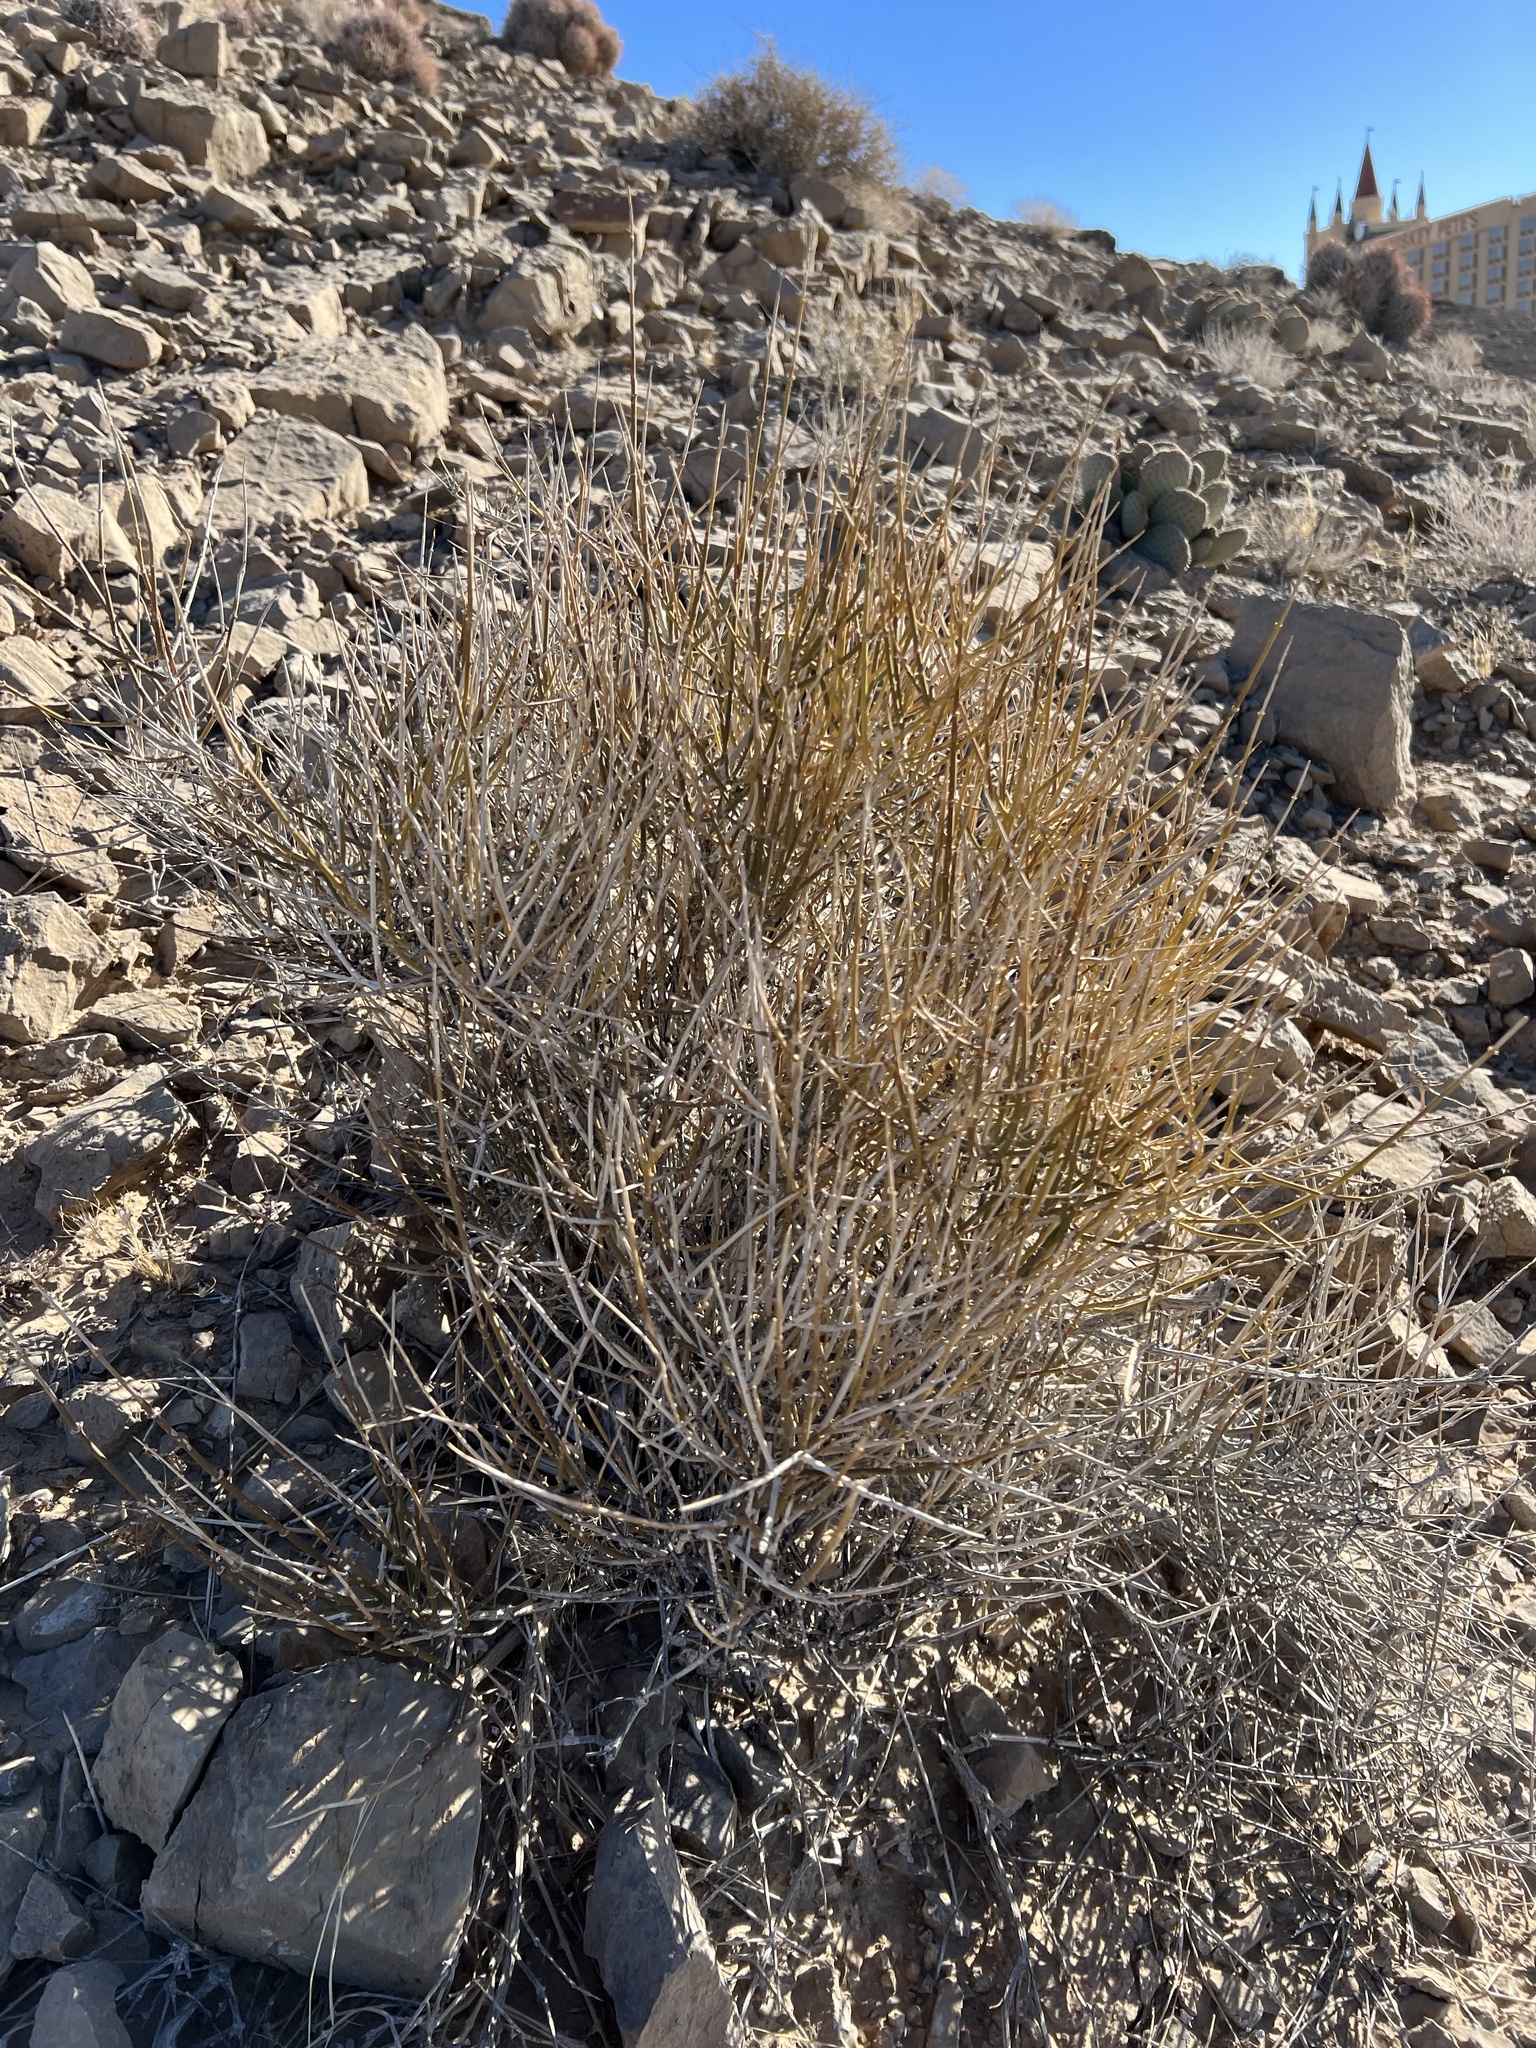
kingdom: Plantae
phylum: Tracheophyta
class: Gnetopsida
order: Ephedrales
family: Ephedraceae
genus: Ephedra
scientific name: Ephedra nevadensis
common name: Gray ephedra
